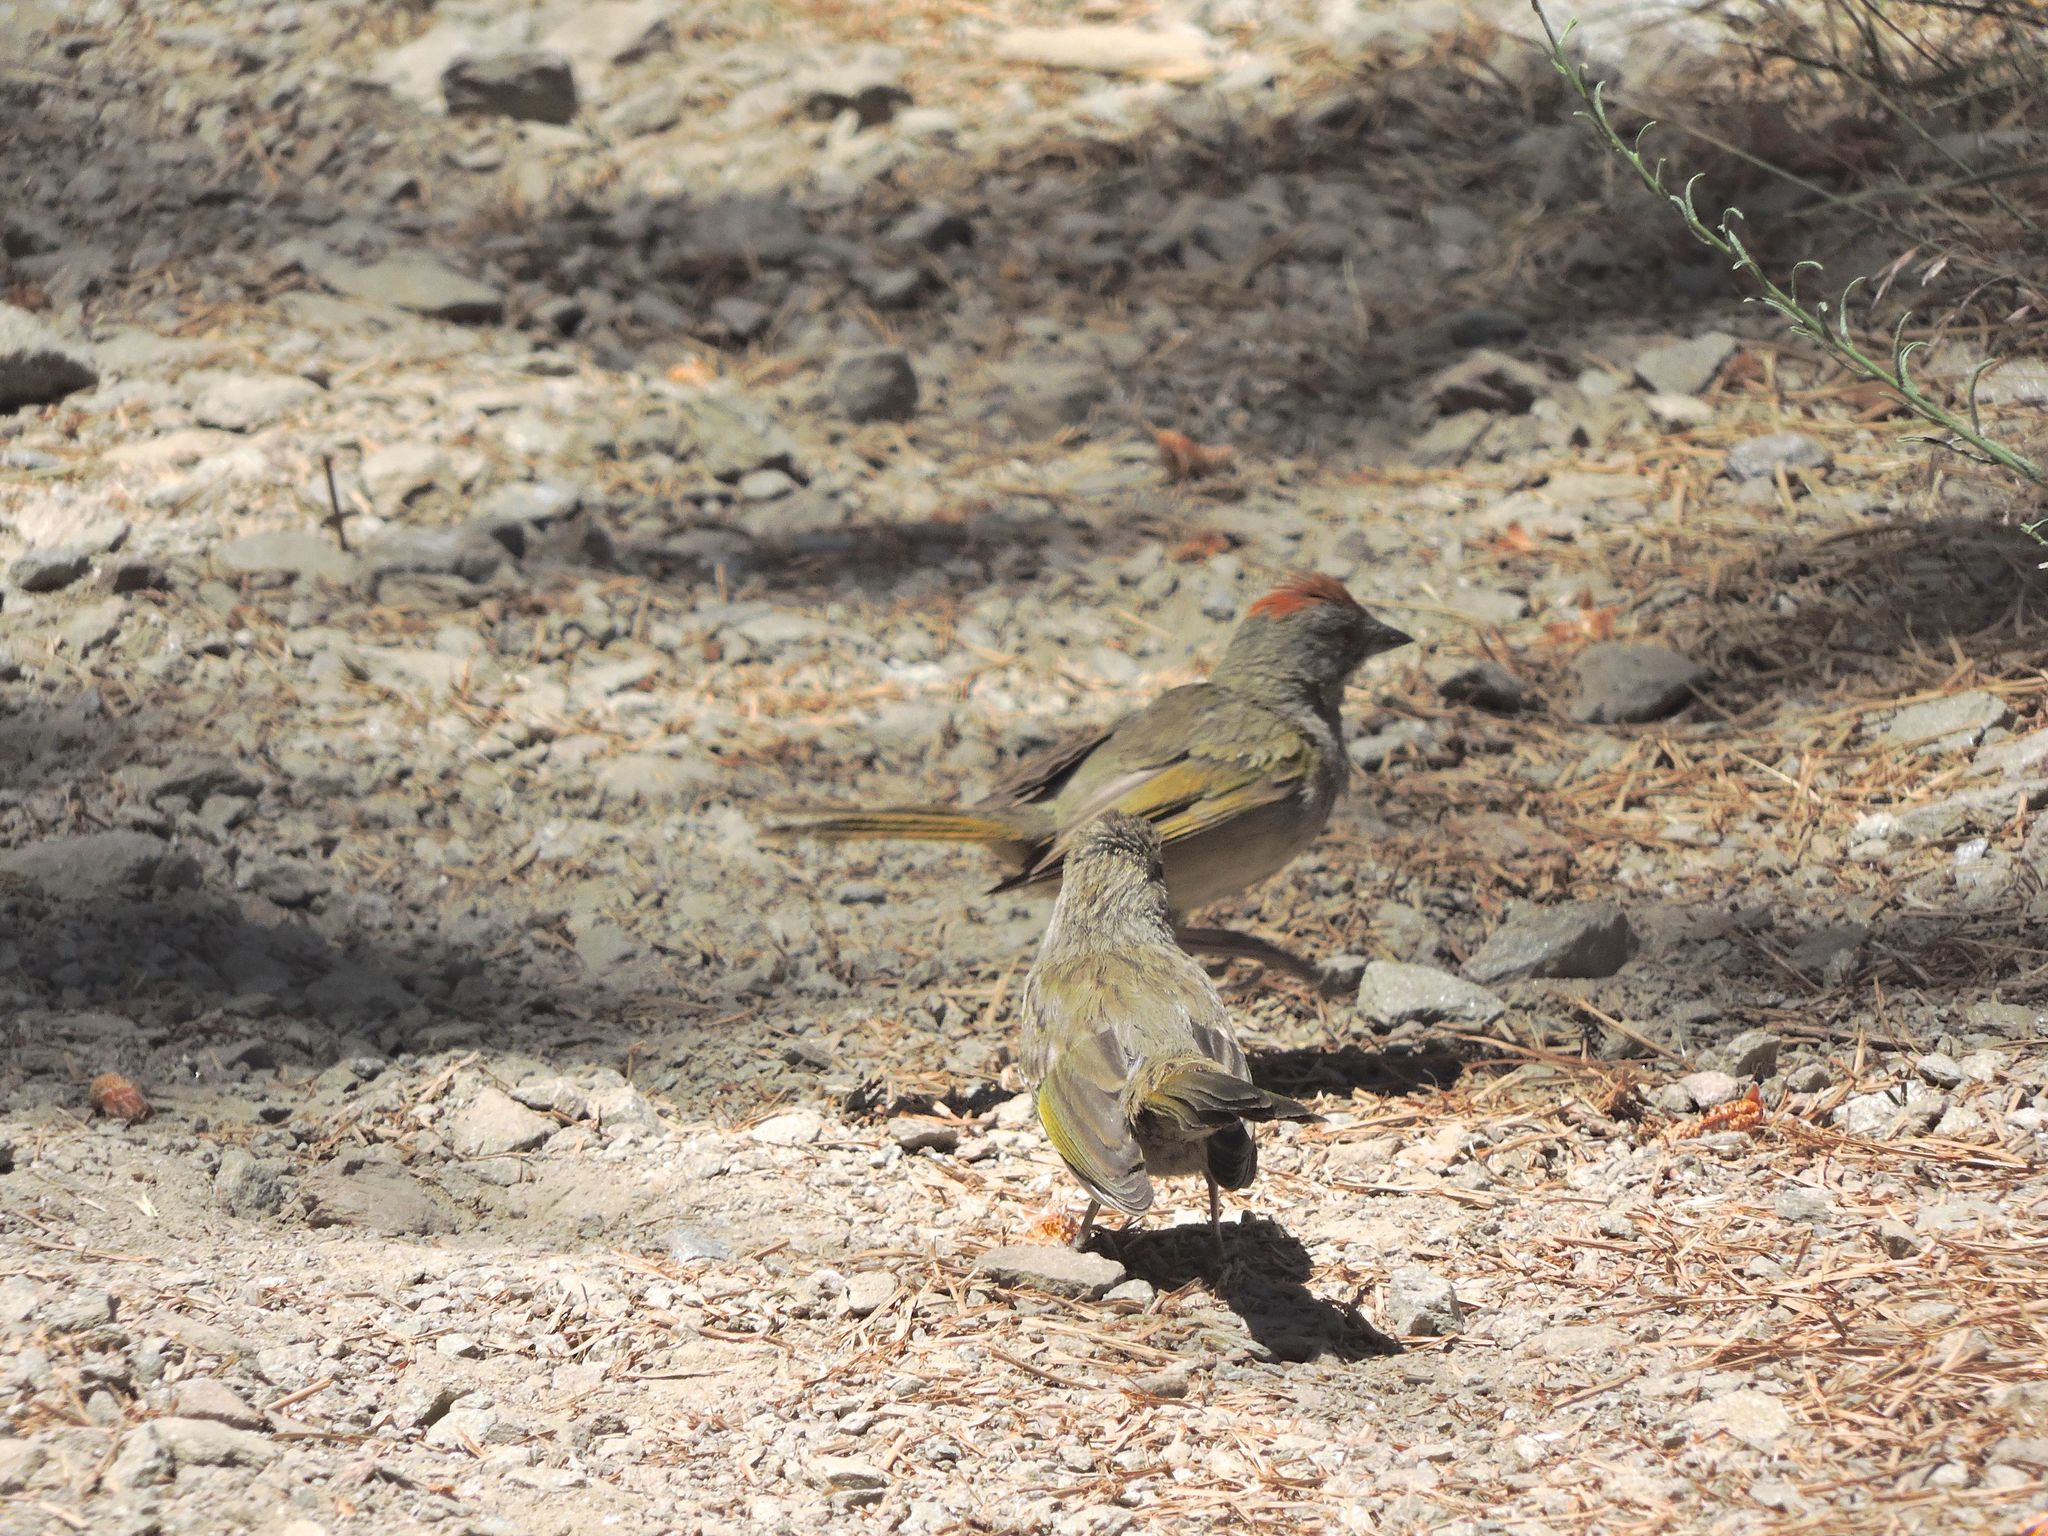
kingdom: Animalia
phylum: Chordata
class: Aves
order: Passeriformes
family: Passerellidae
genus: Pipilo
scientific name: Pipilo chlorurus
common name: Green-tailed towhee
